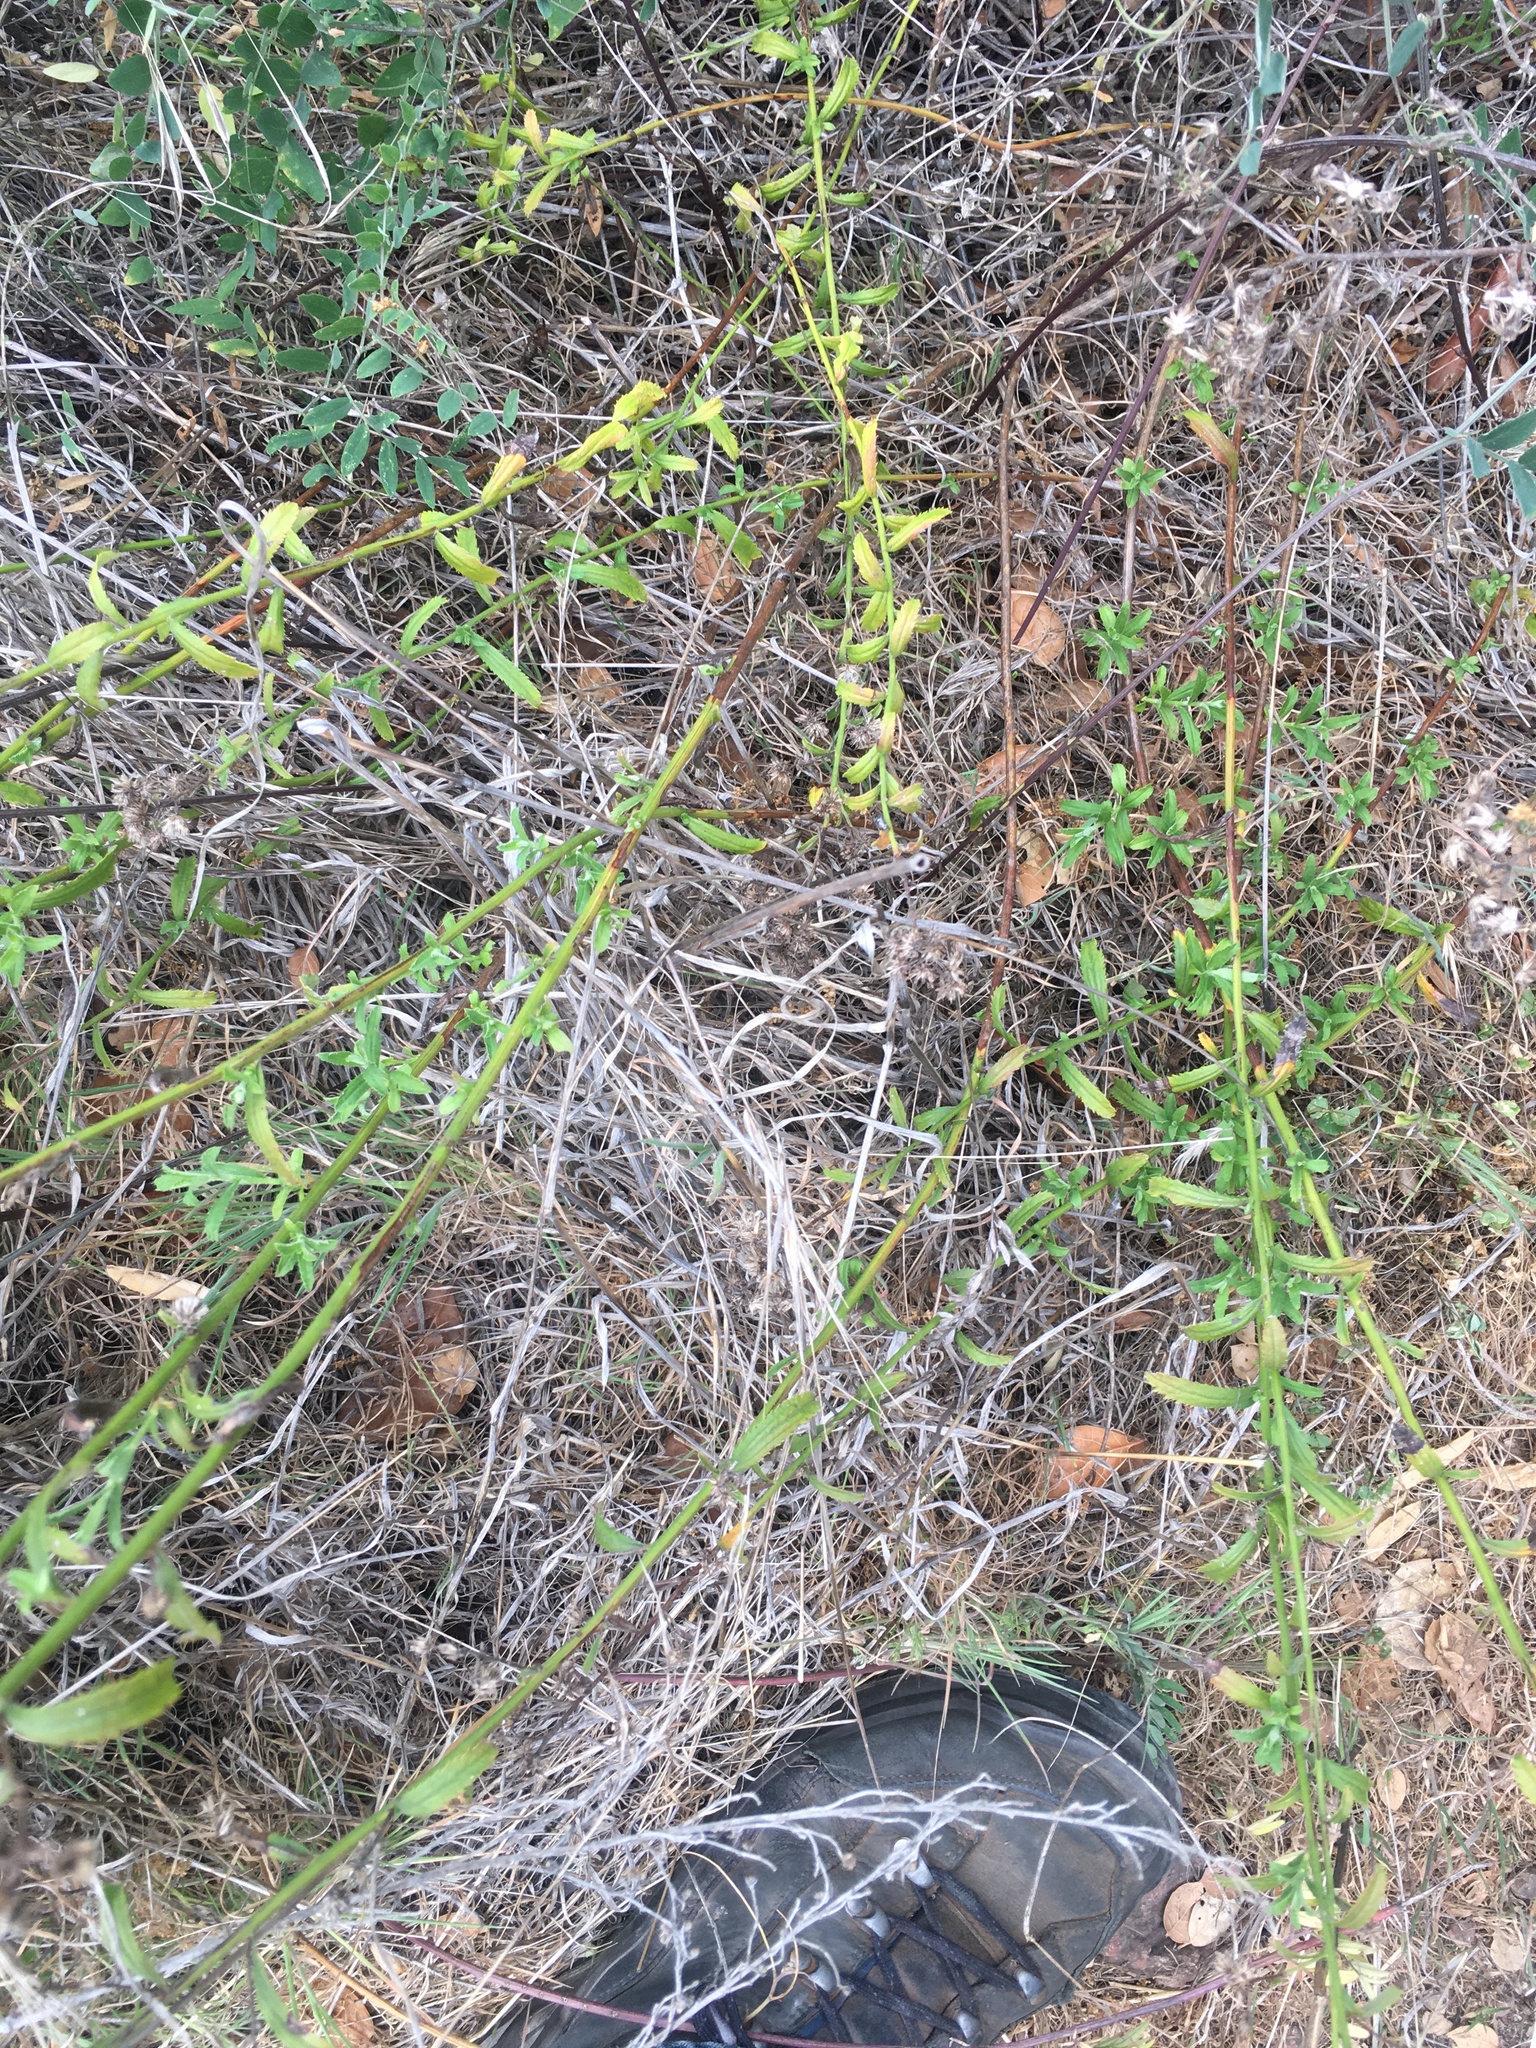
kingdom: Plantae
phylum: Tracheophyta
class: Magnoliopsida
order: Asterales
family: Asteraceae
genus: Baccharis
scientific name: Baccharis plummerae
